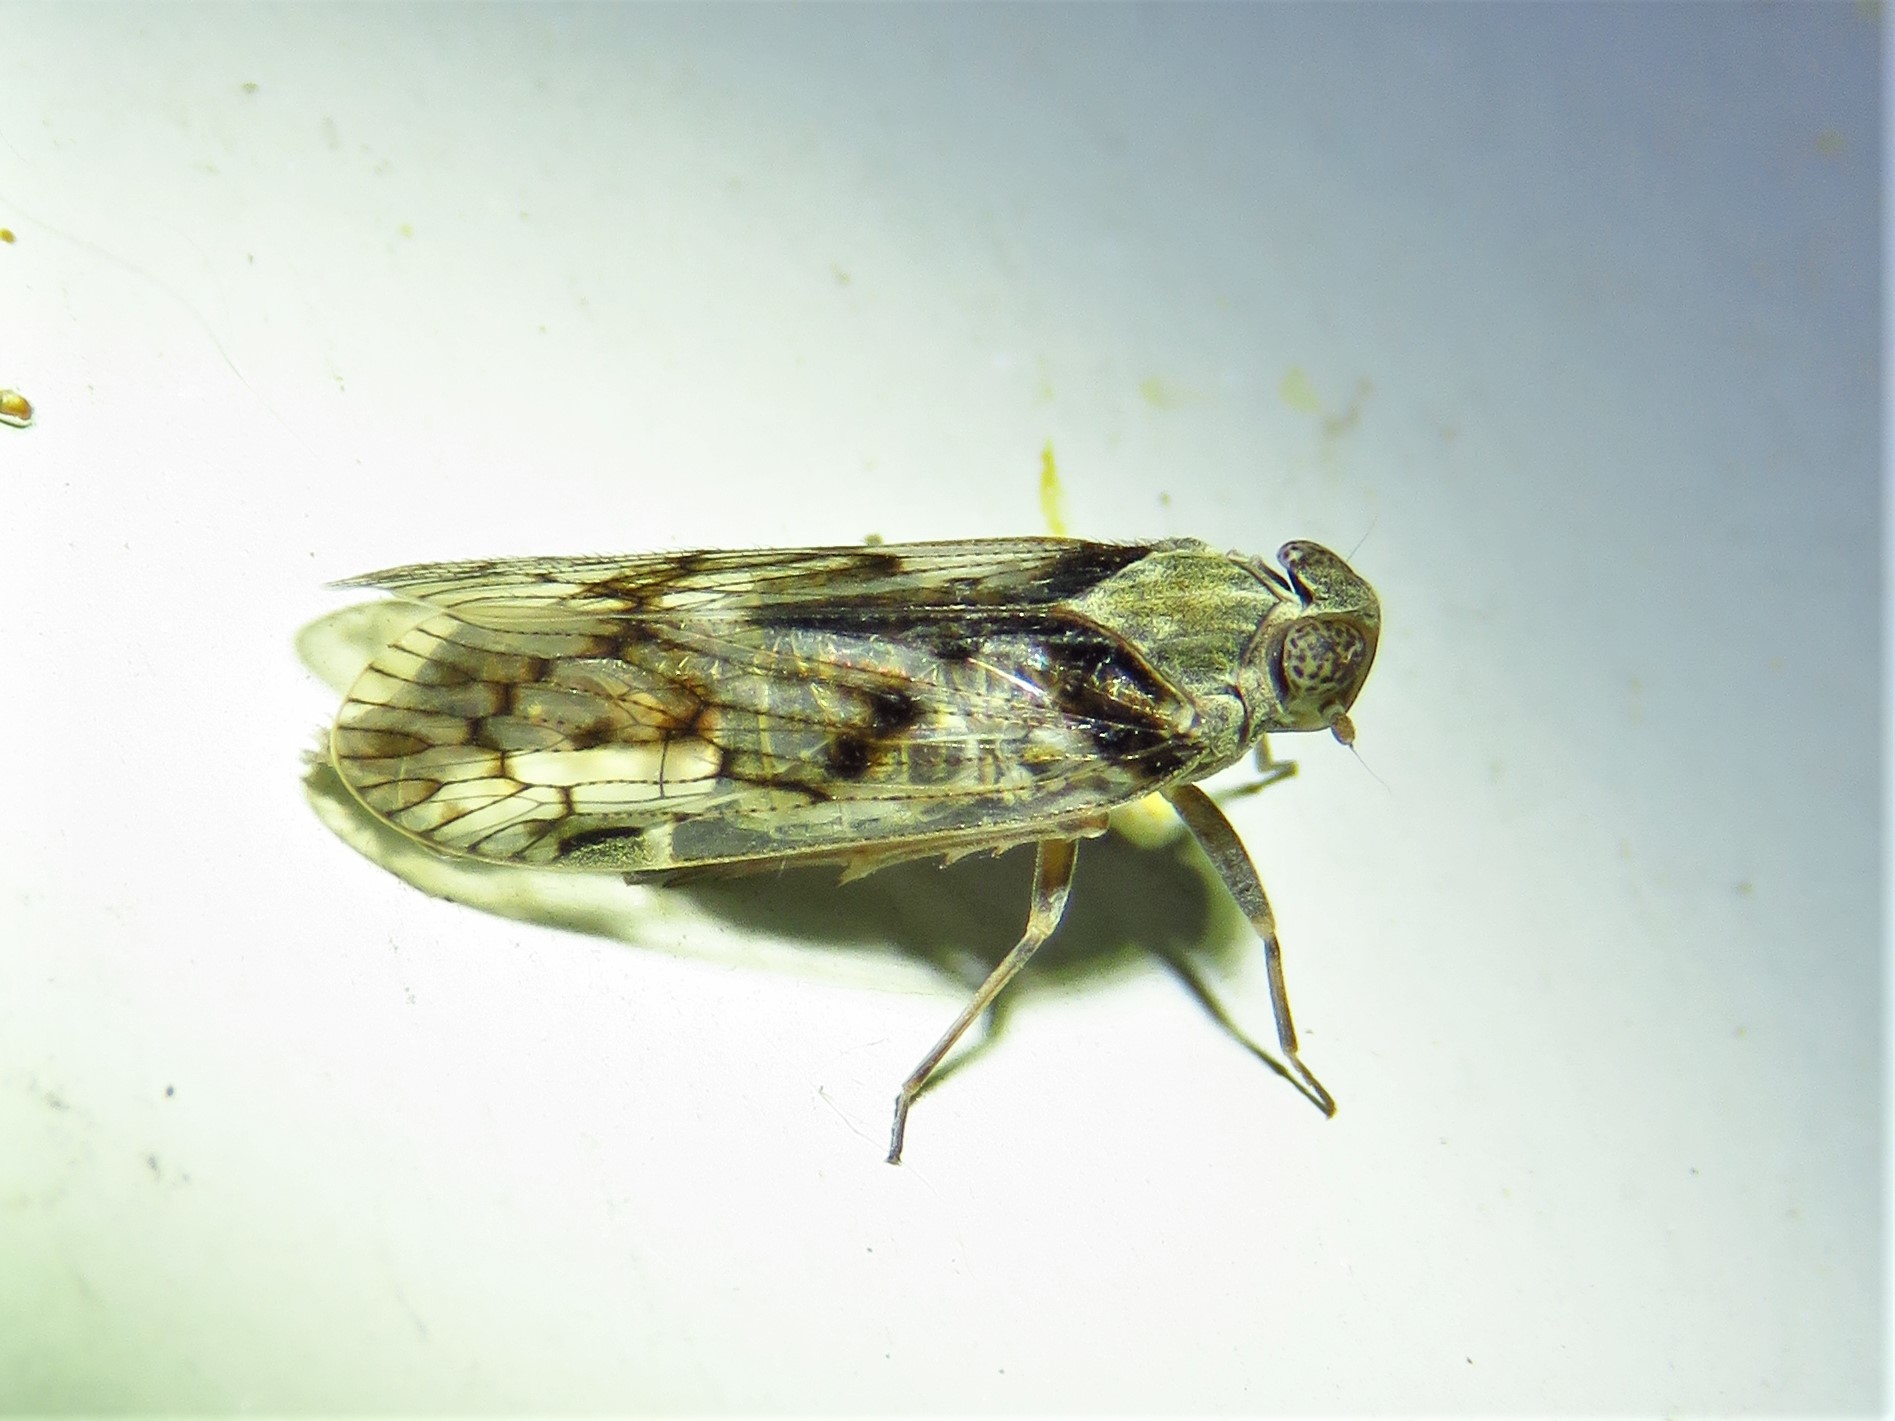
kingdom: Animalia
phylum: Arthropoda
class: Insecta
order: Hemiptera
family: Cixiidae
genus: Melanoliarus
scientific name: Melanoliarus aridus
